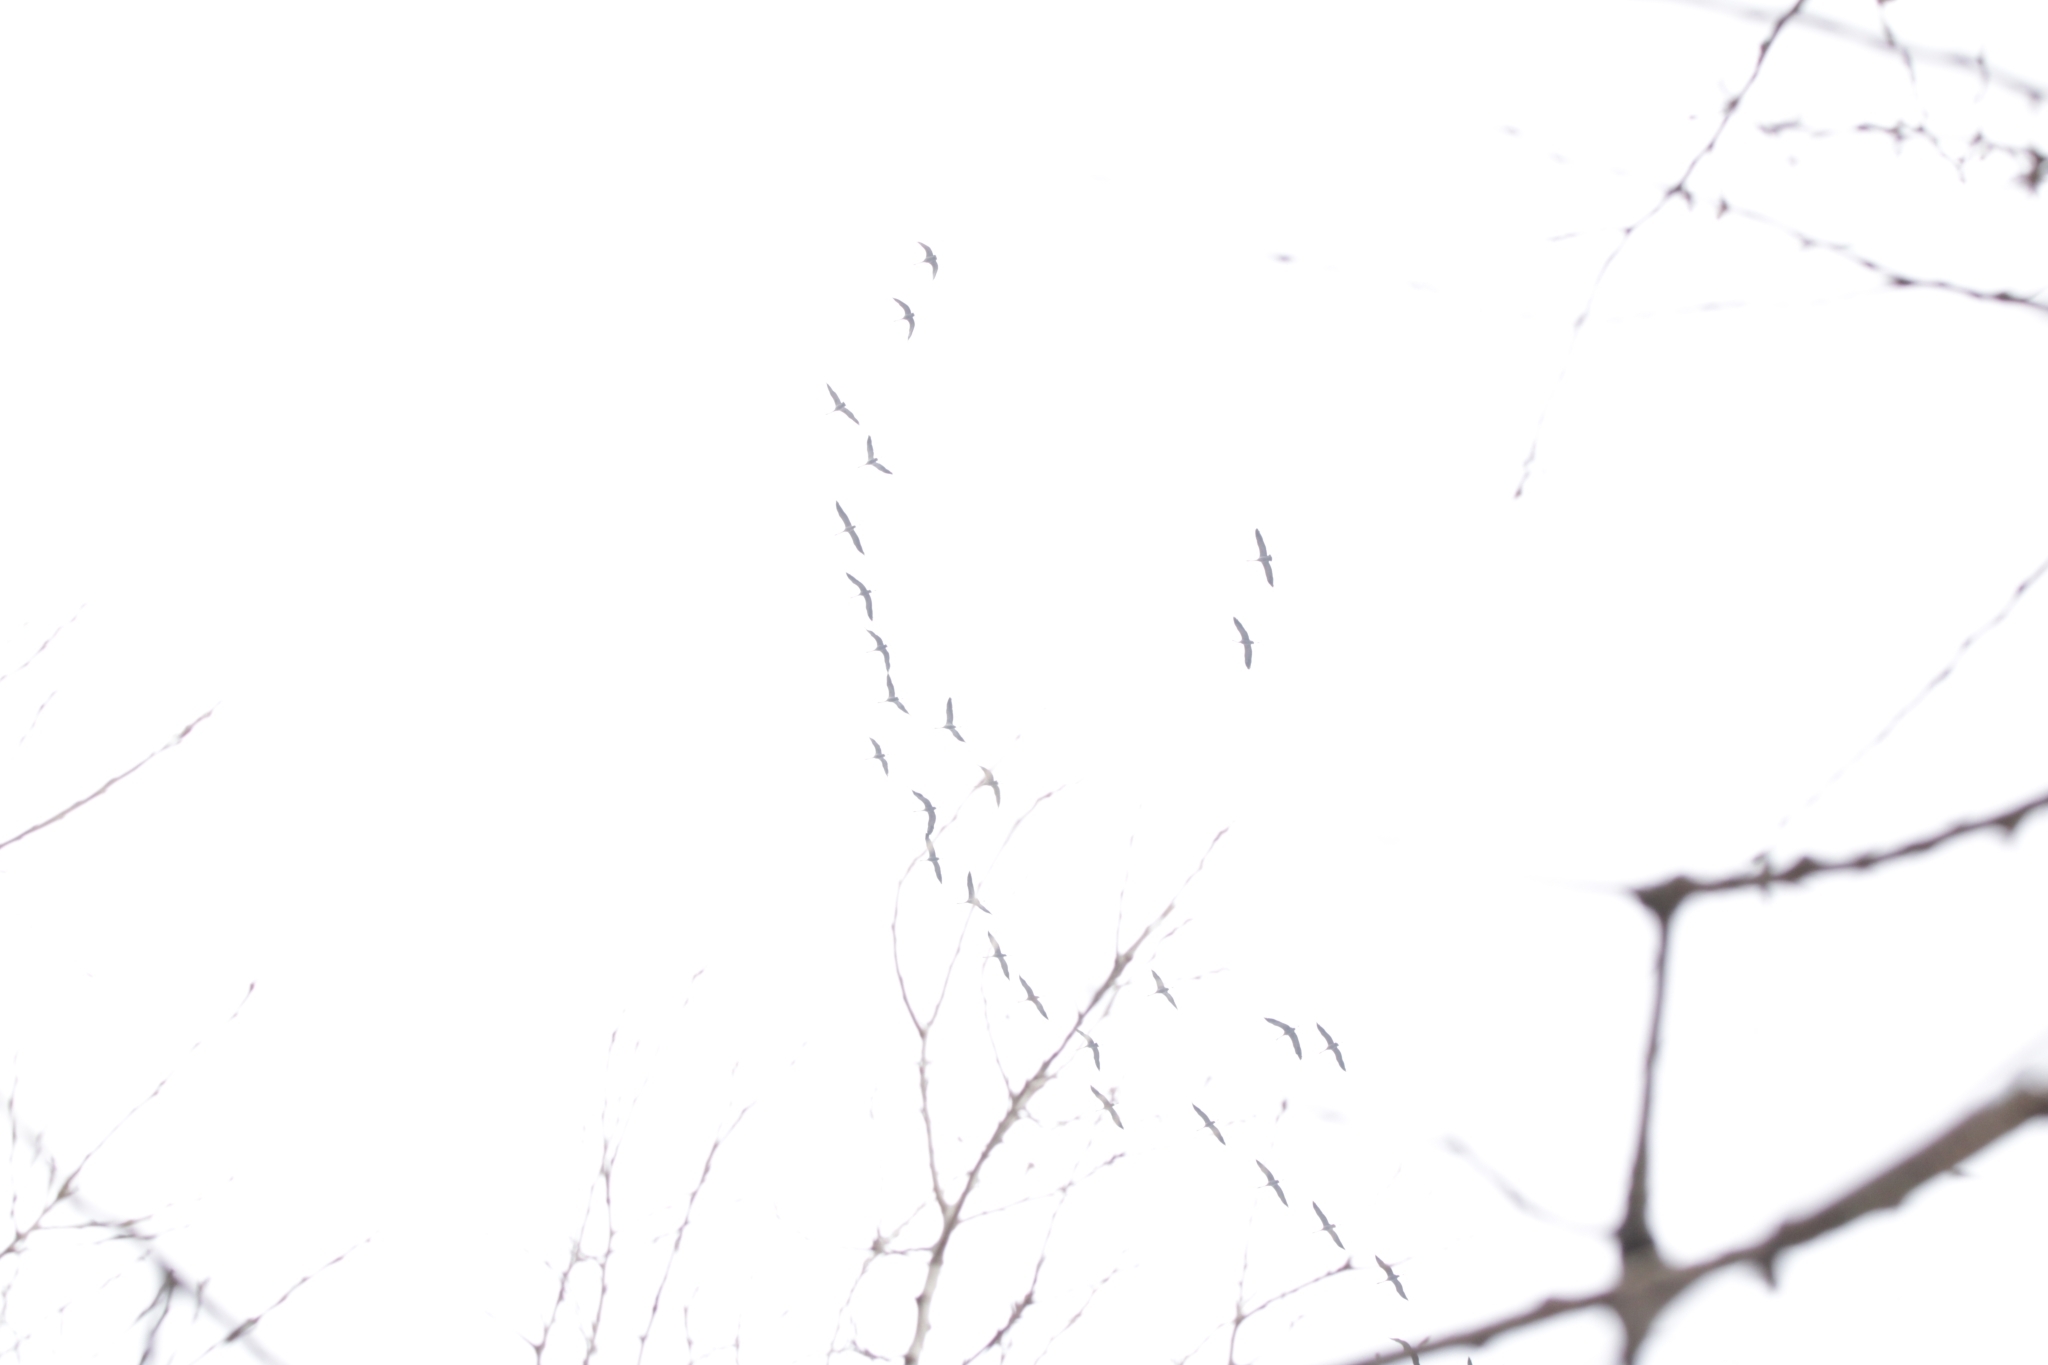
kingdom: Animalia
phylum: Chordata
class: Aves
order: Gruiformes
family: Gruidae
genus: Grus
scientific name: Grus grus
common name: Common crane
